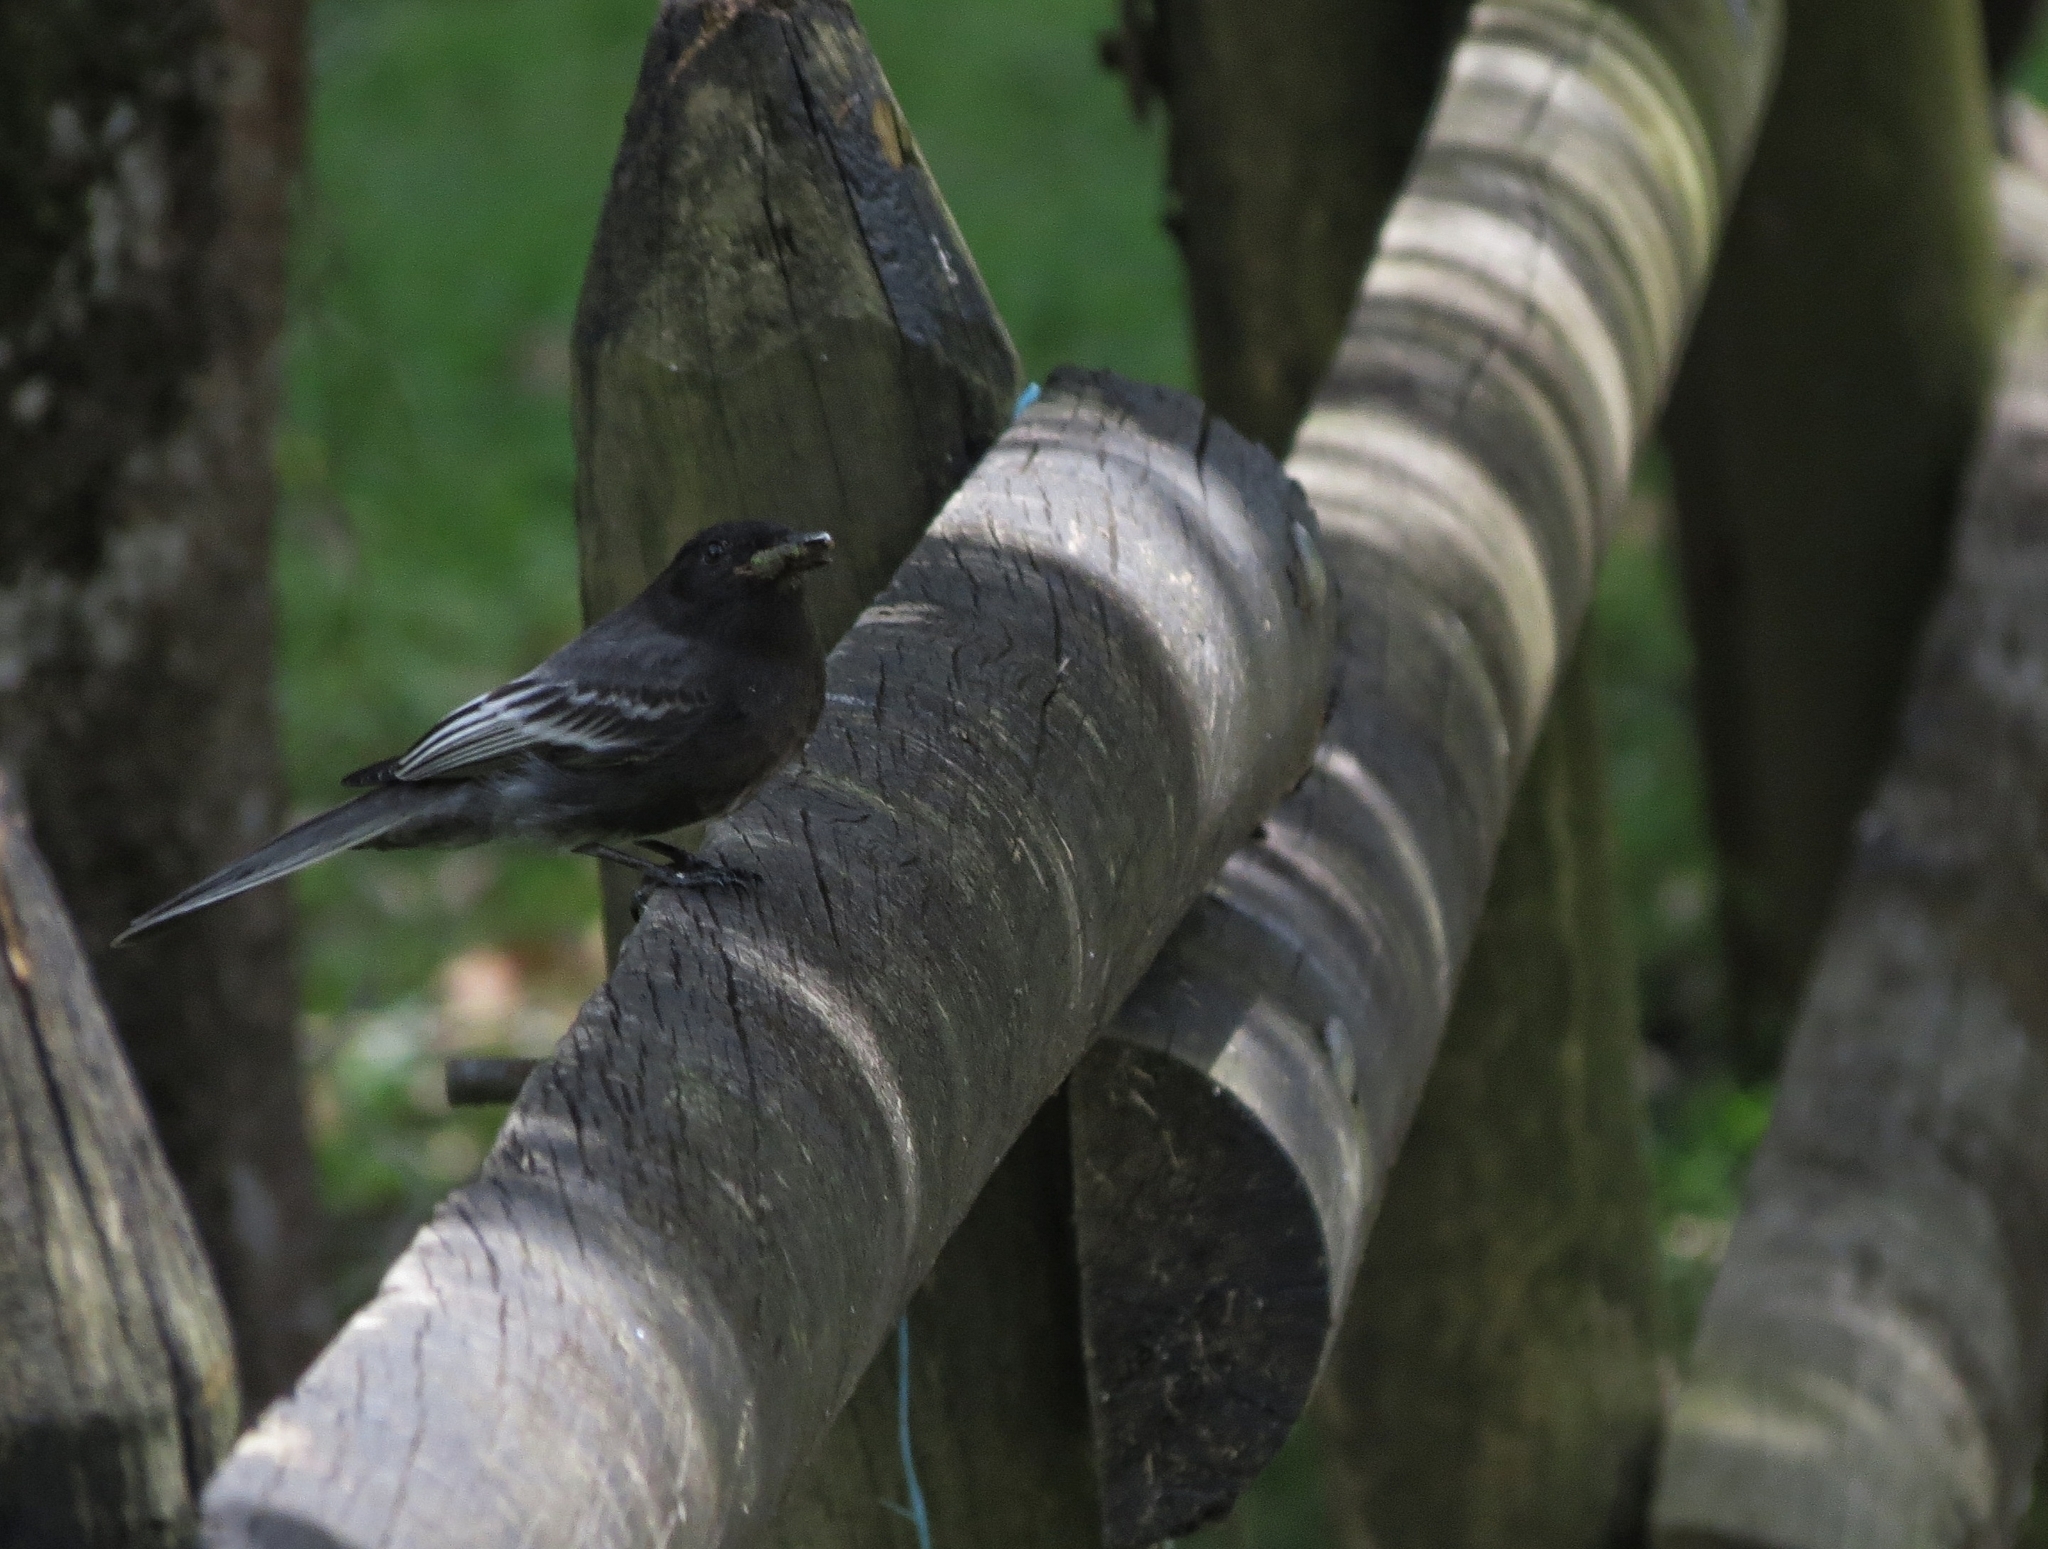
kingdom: Animalia
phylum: Chordata
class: Aves
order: Passeriformes
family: Tyrannidae
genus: Sayornis
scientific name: Sayornis nigricans
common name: Black phoebe
